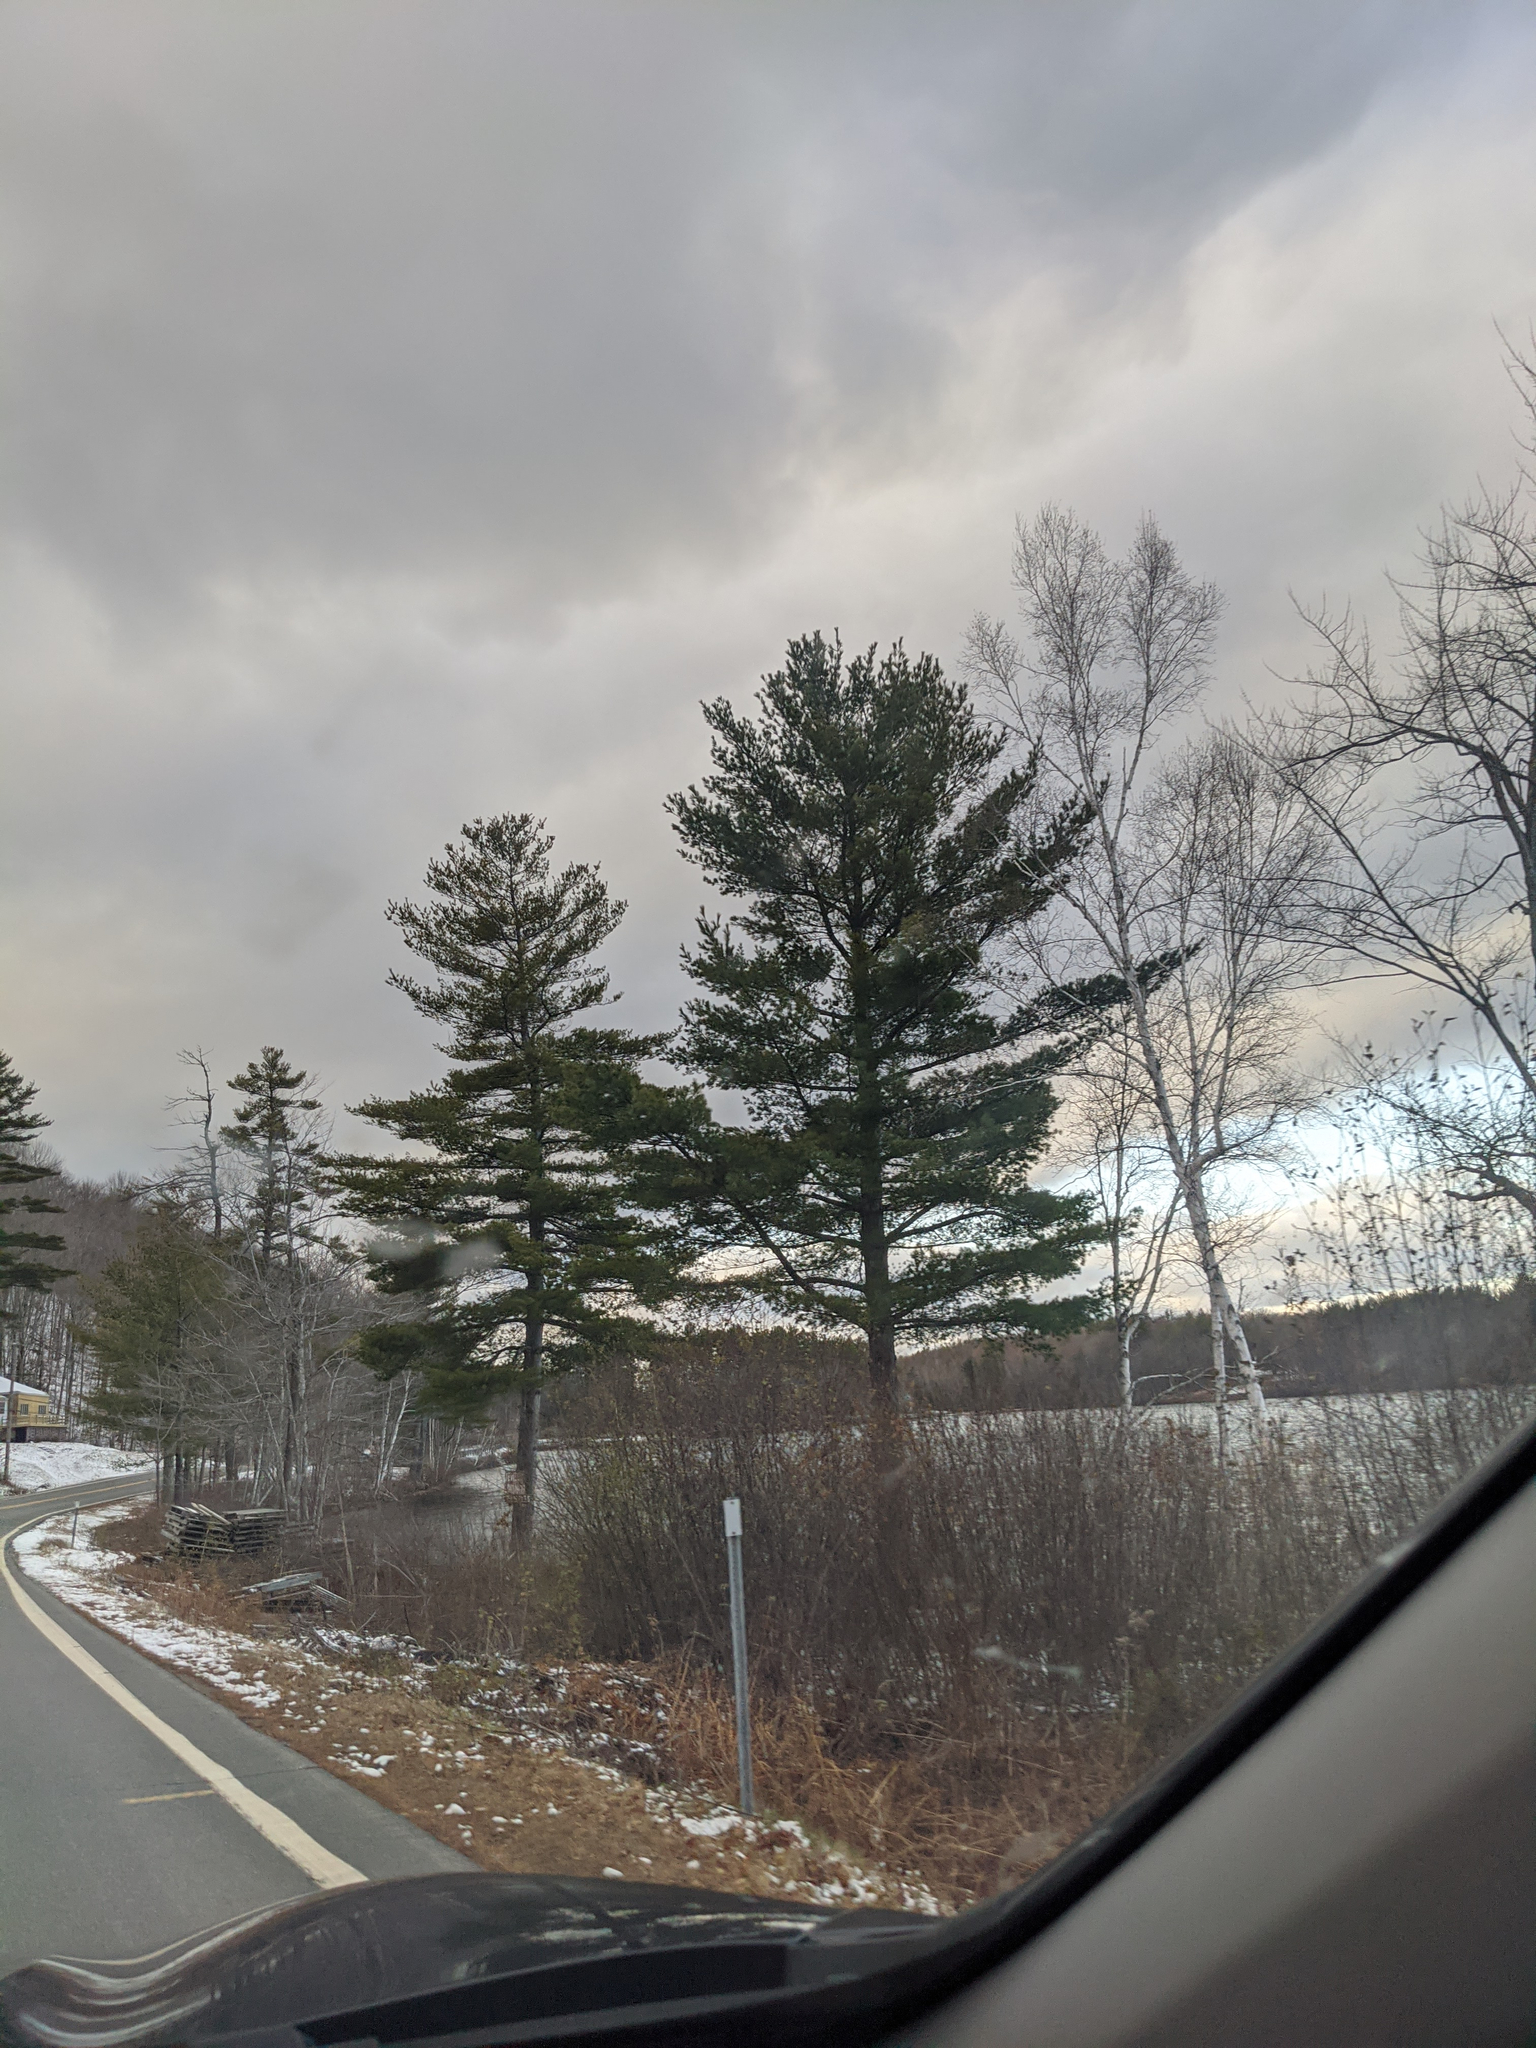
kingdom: Plantae
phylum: Tracheophyta
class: Pinopsida
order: Pinales
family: Pinaceae
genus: Pinus
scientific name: Pinus strobus
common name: Weymouth pine
